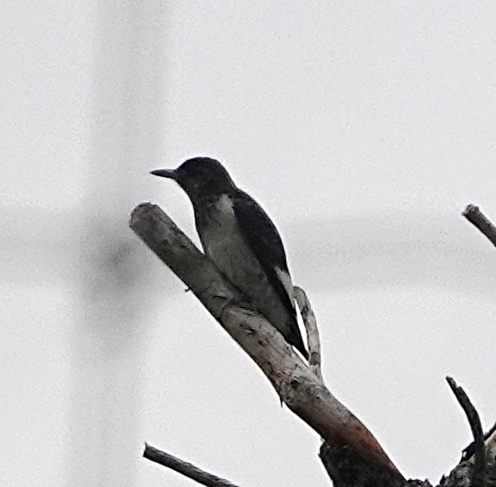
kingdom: Animalia
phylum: Chordata
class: Aves
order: Piciformes
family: Picidae
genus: Melanerpes
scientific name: Melanerpes erythrocephalus
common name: Red-headed woodpecker
